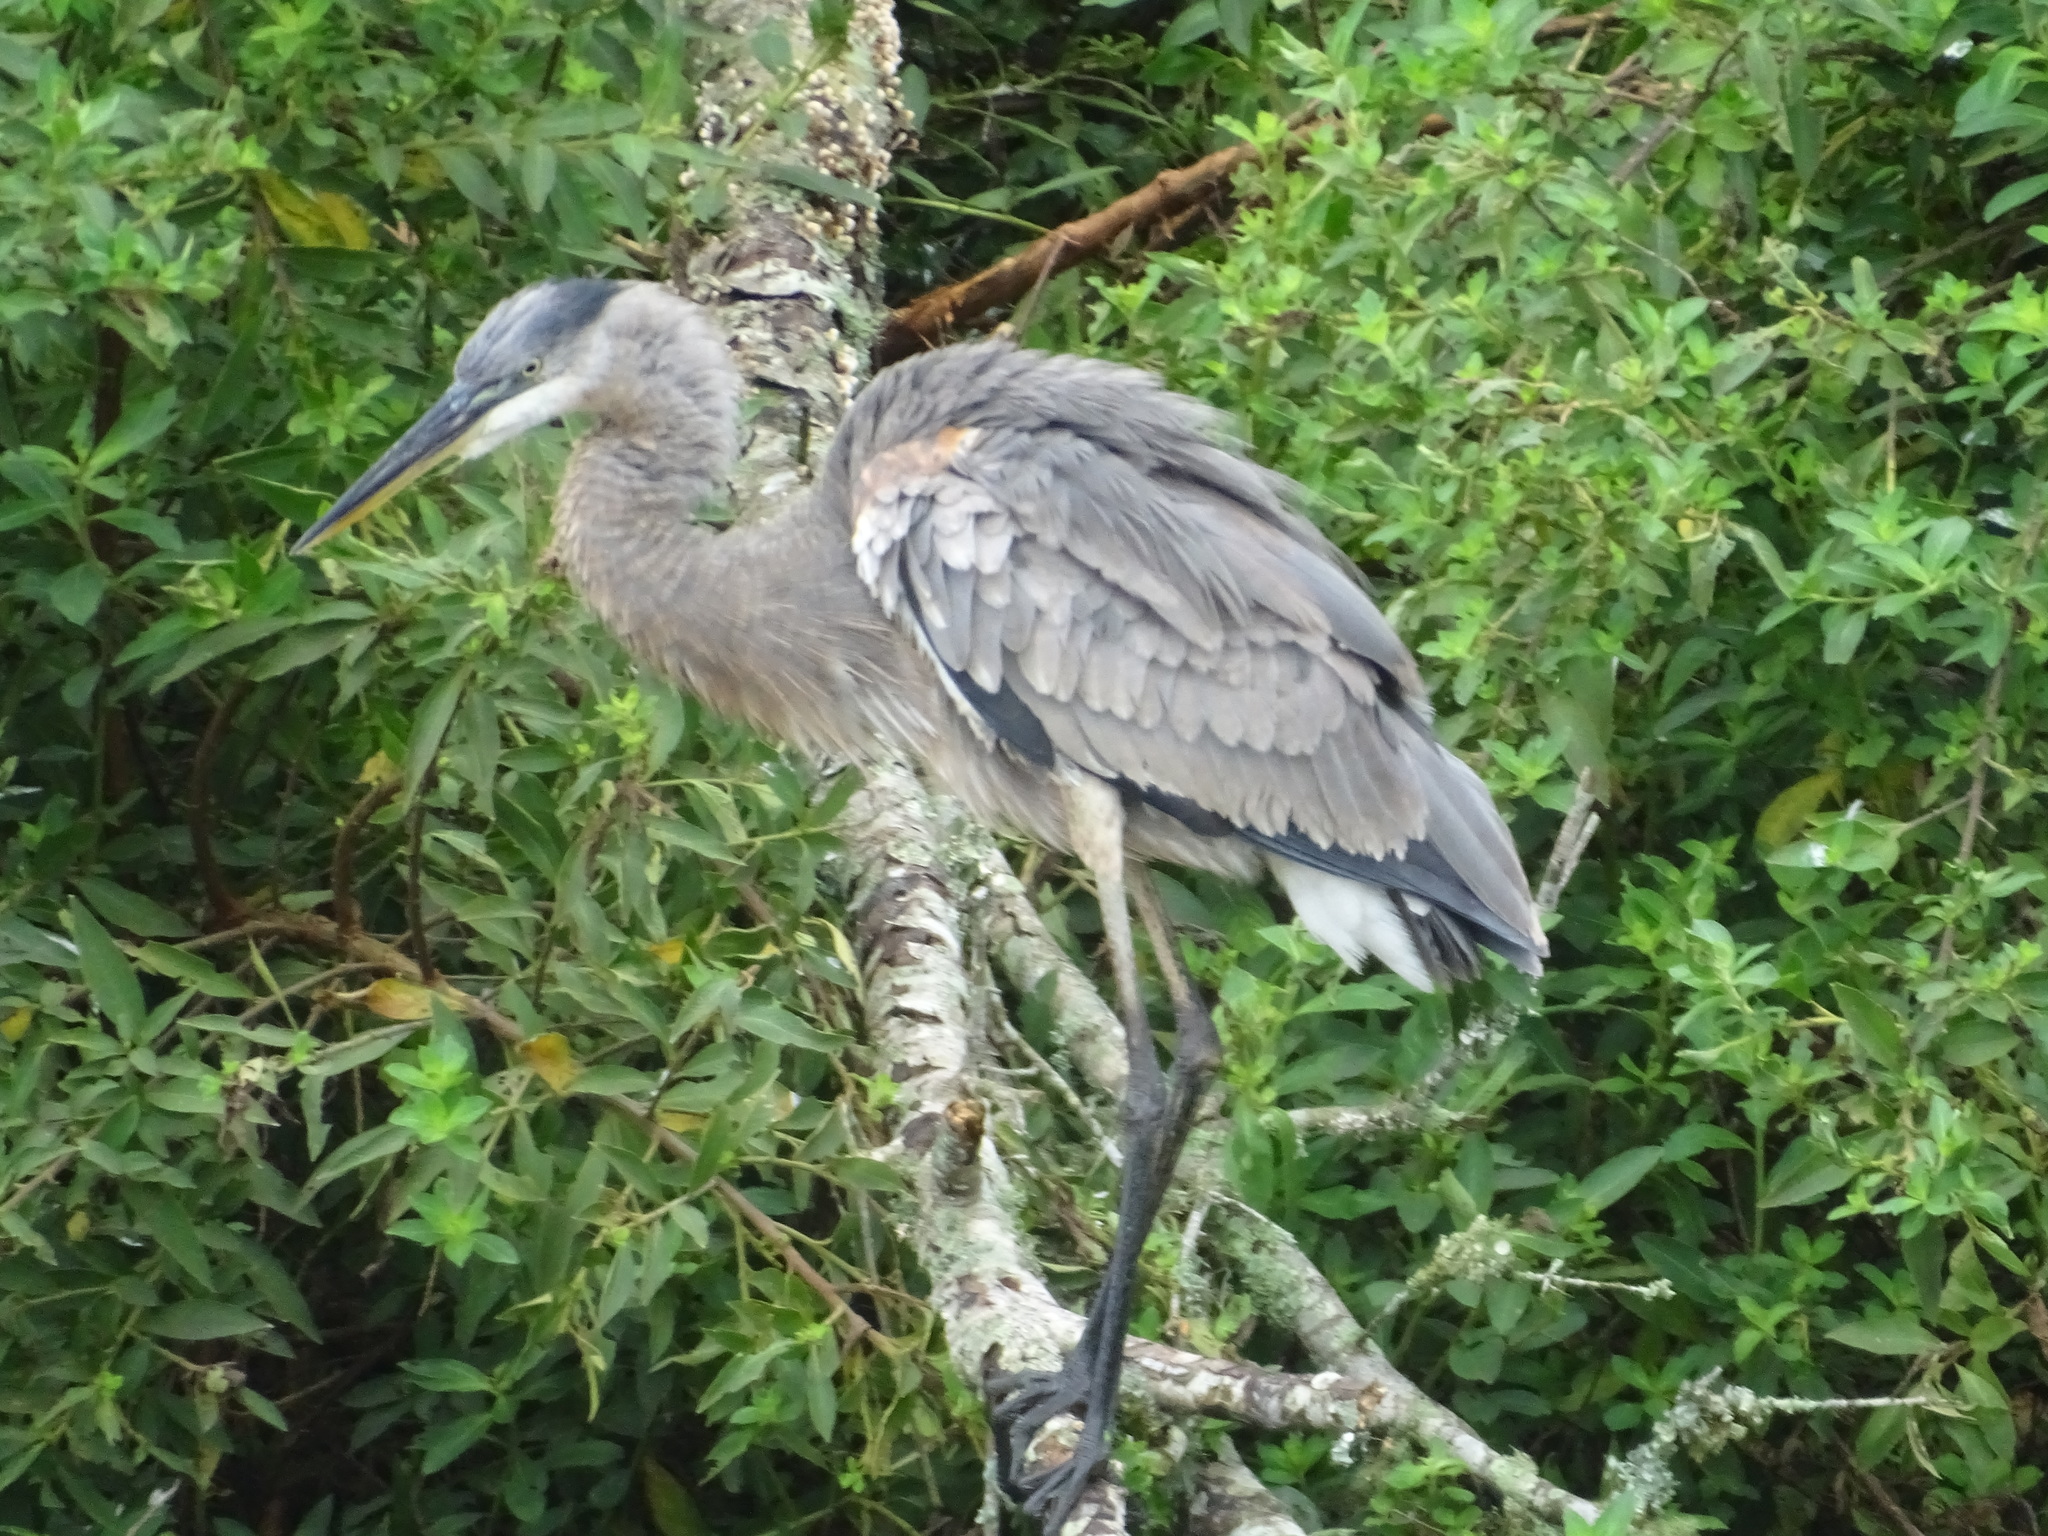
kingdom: Animalia
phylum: Chordata
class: Aves
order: Pelecaniformes
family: Ardeidae
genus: Ardea
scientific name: Ardea herodias
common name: Great blue heron
